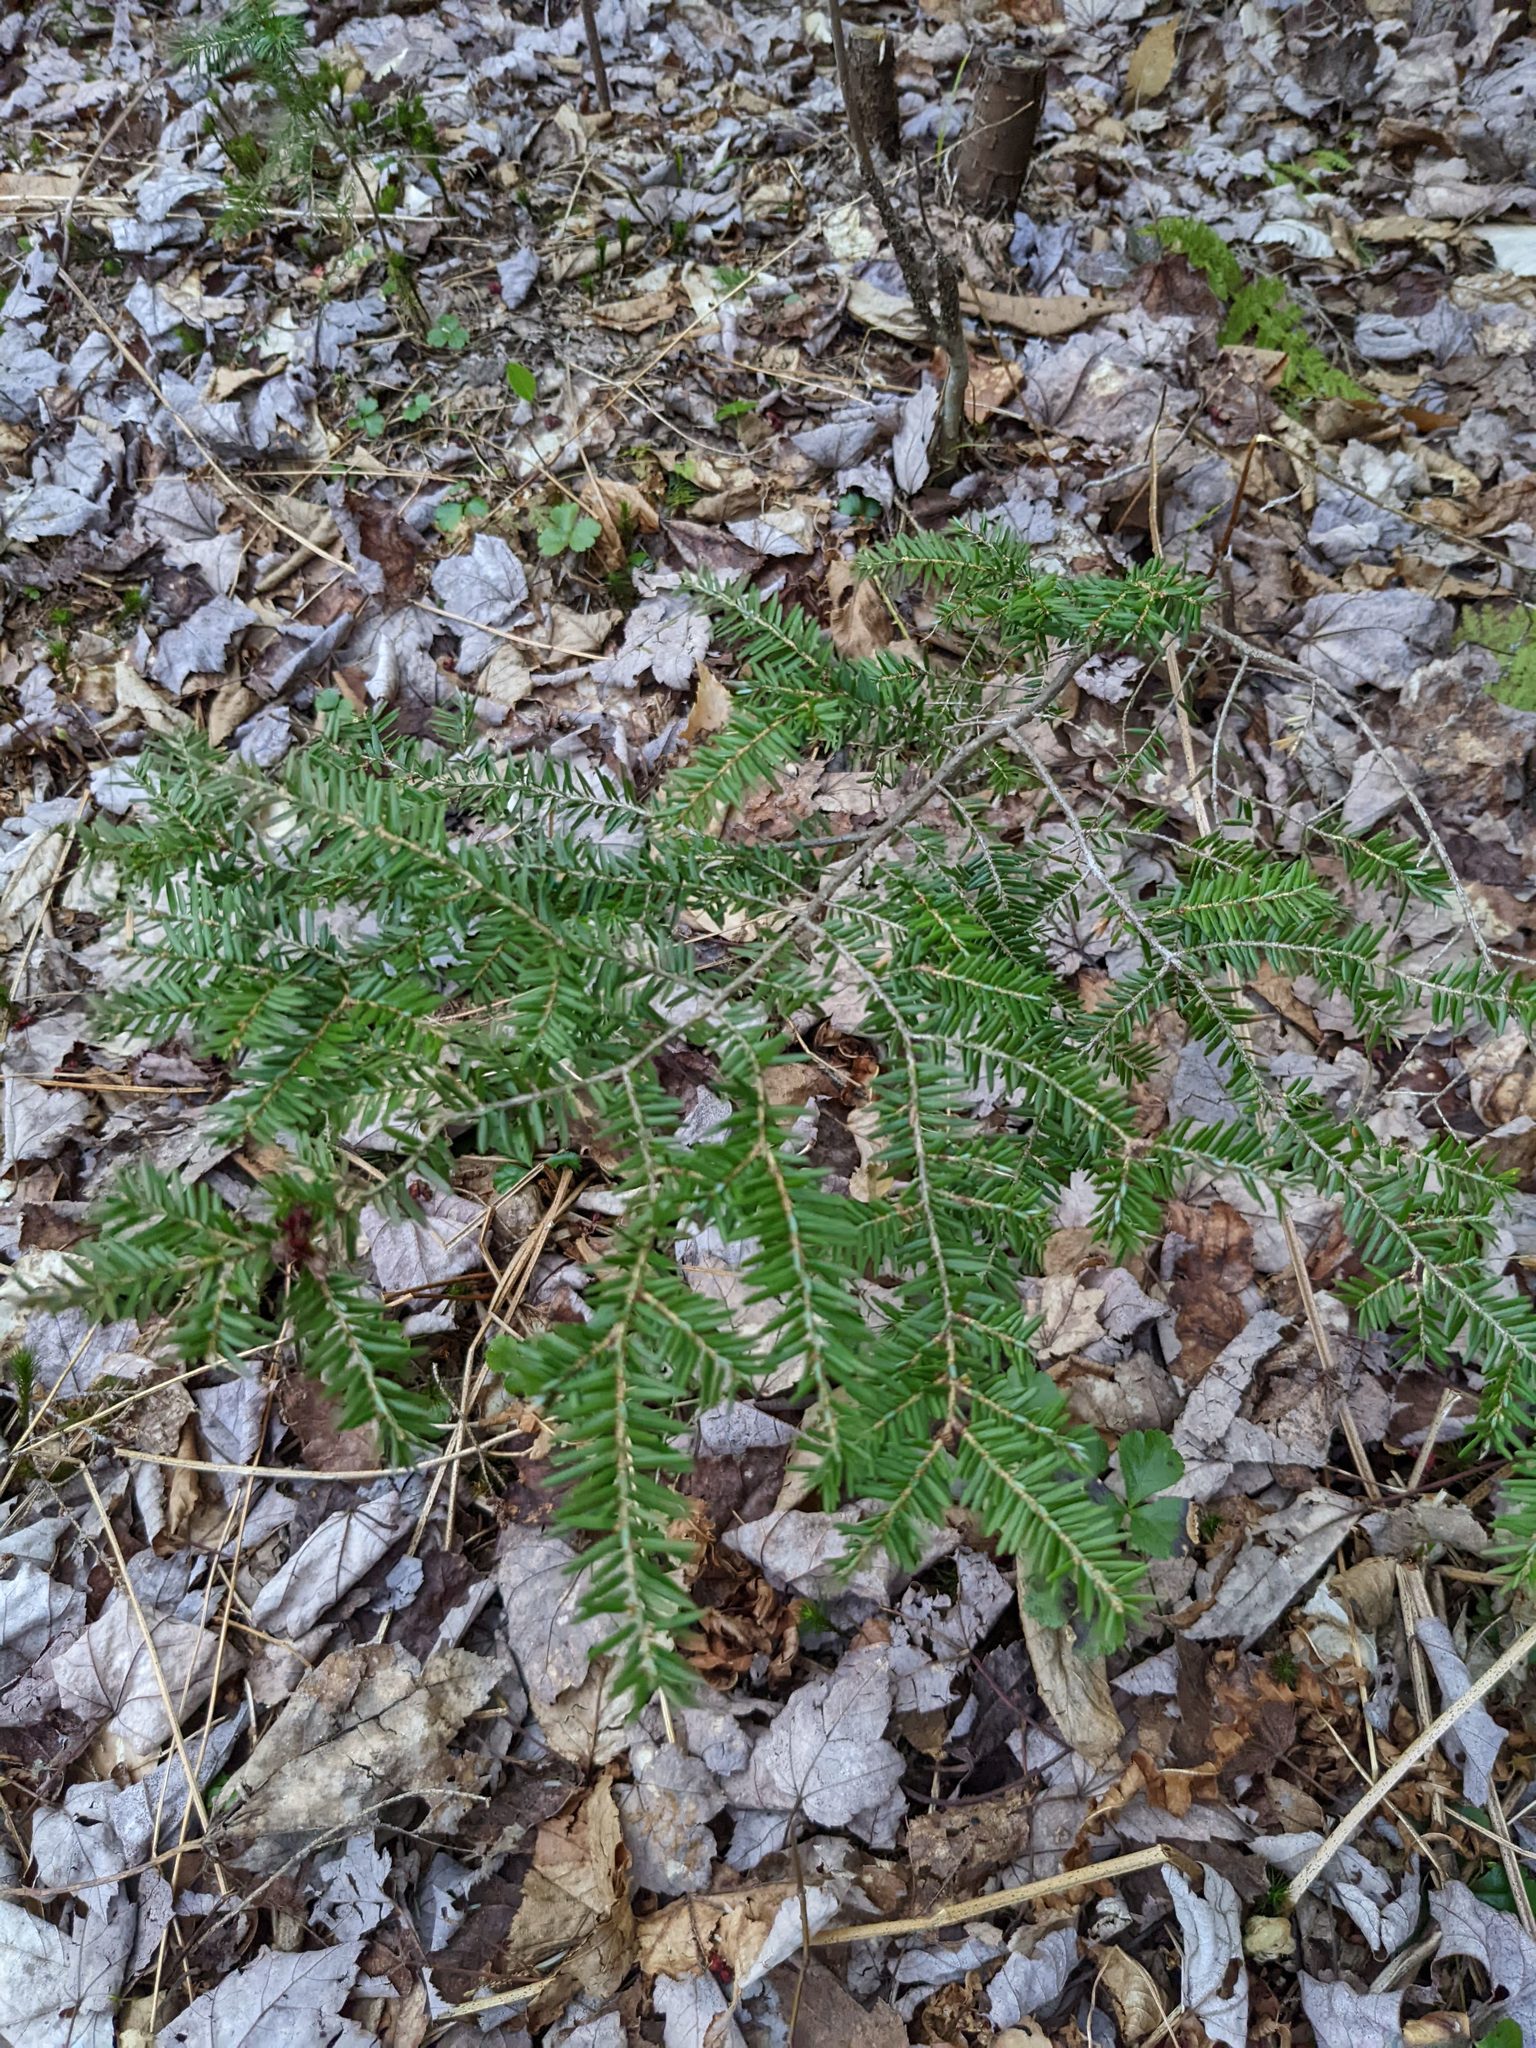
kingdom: Plantae
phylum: Tracheophyta
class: Pinopsida
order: Pinales
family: Pinaceae
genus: Tsuga
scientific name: Tsuga canadensis
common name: Eastern hemlock
